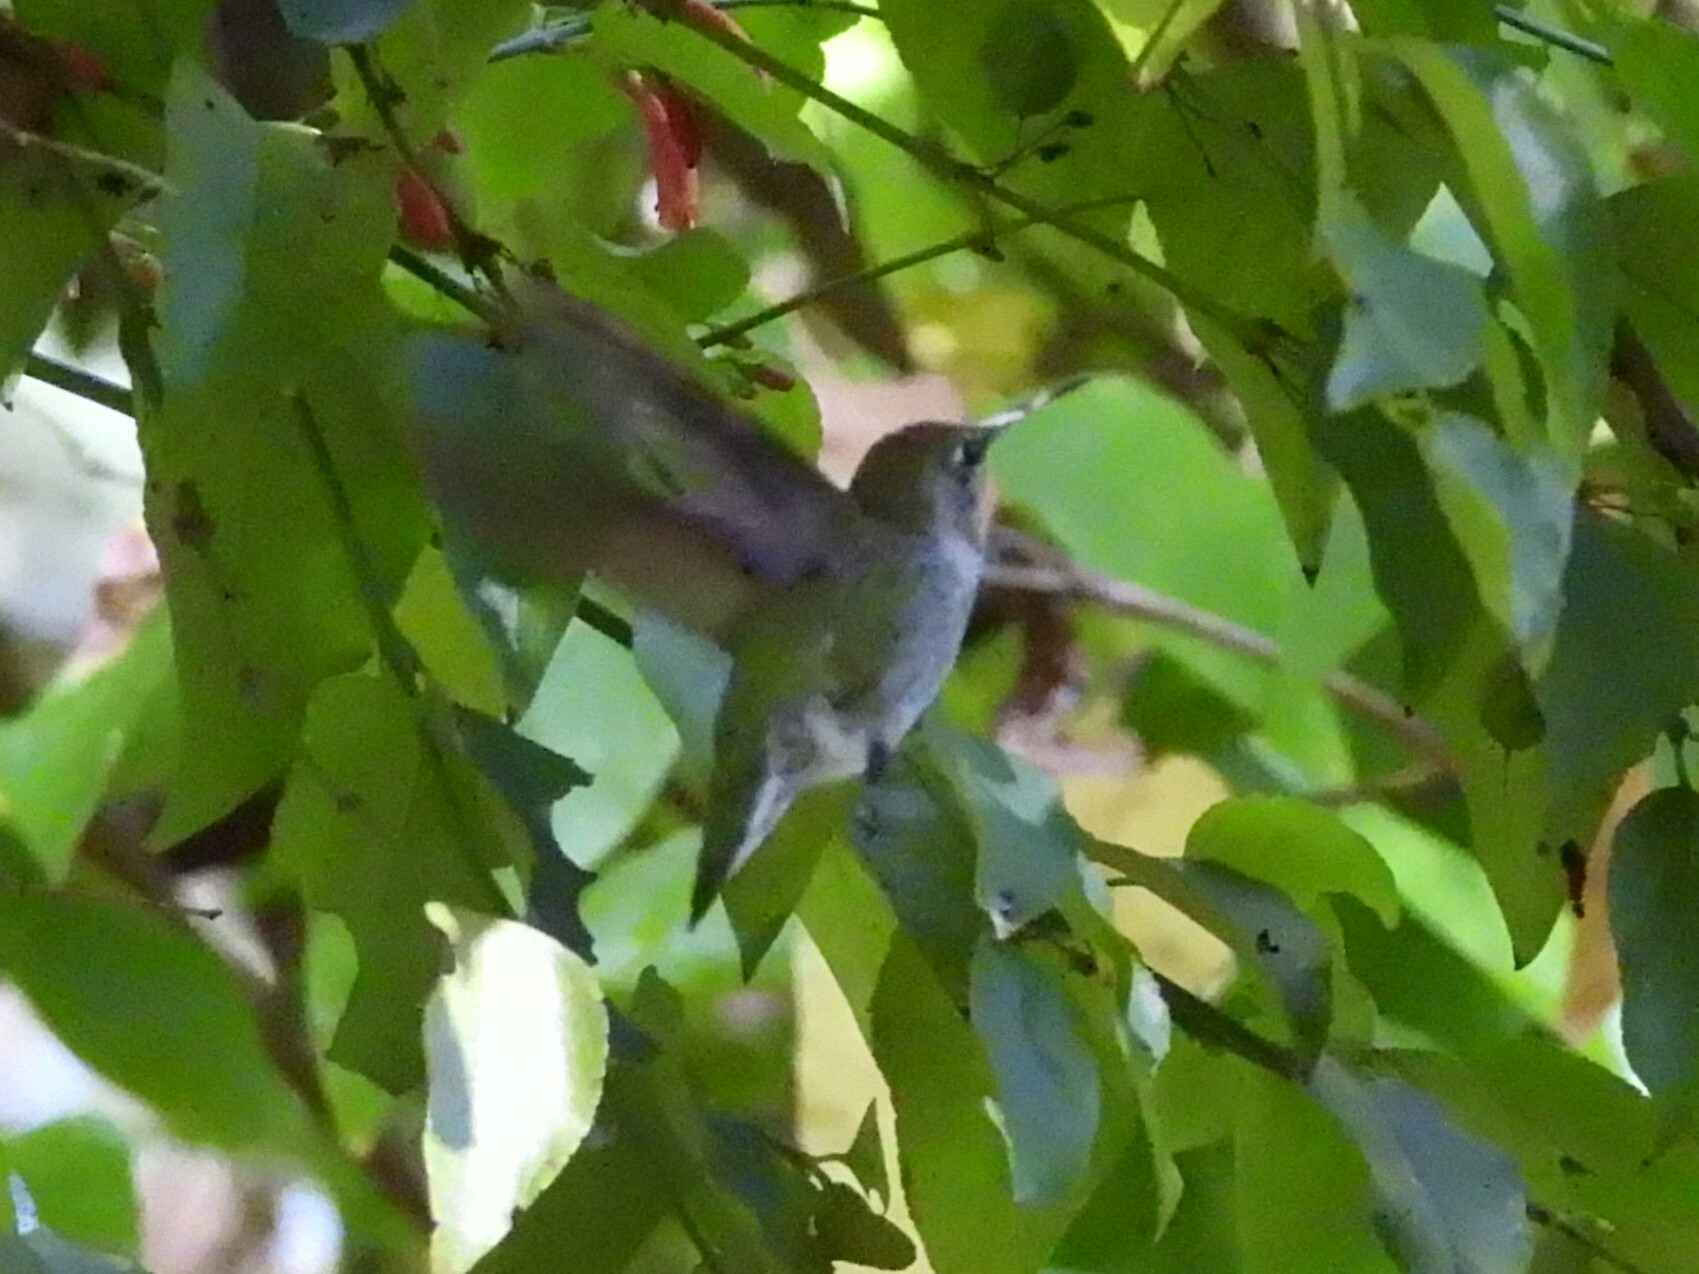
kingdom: Animalia
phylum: Chordata
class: Aves
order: Apodiformes
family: Trochilidae
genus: Calypte
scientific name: Calypte anna
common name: Anna's hummingbird
